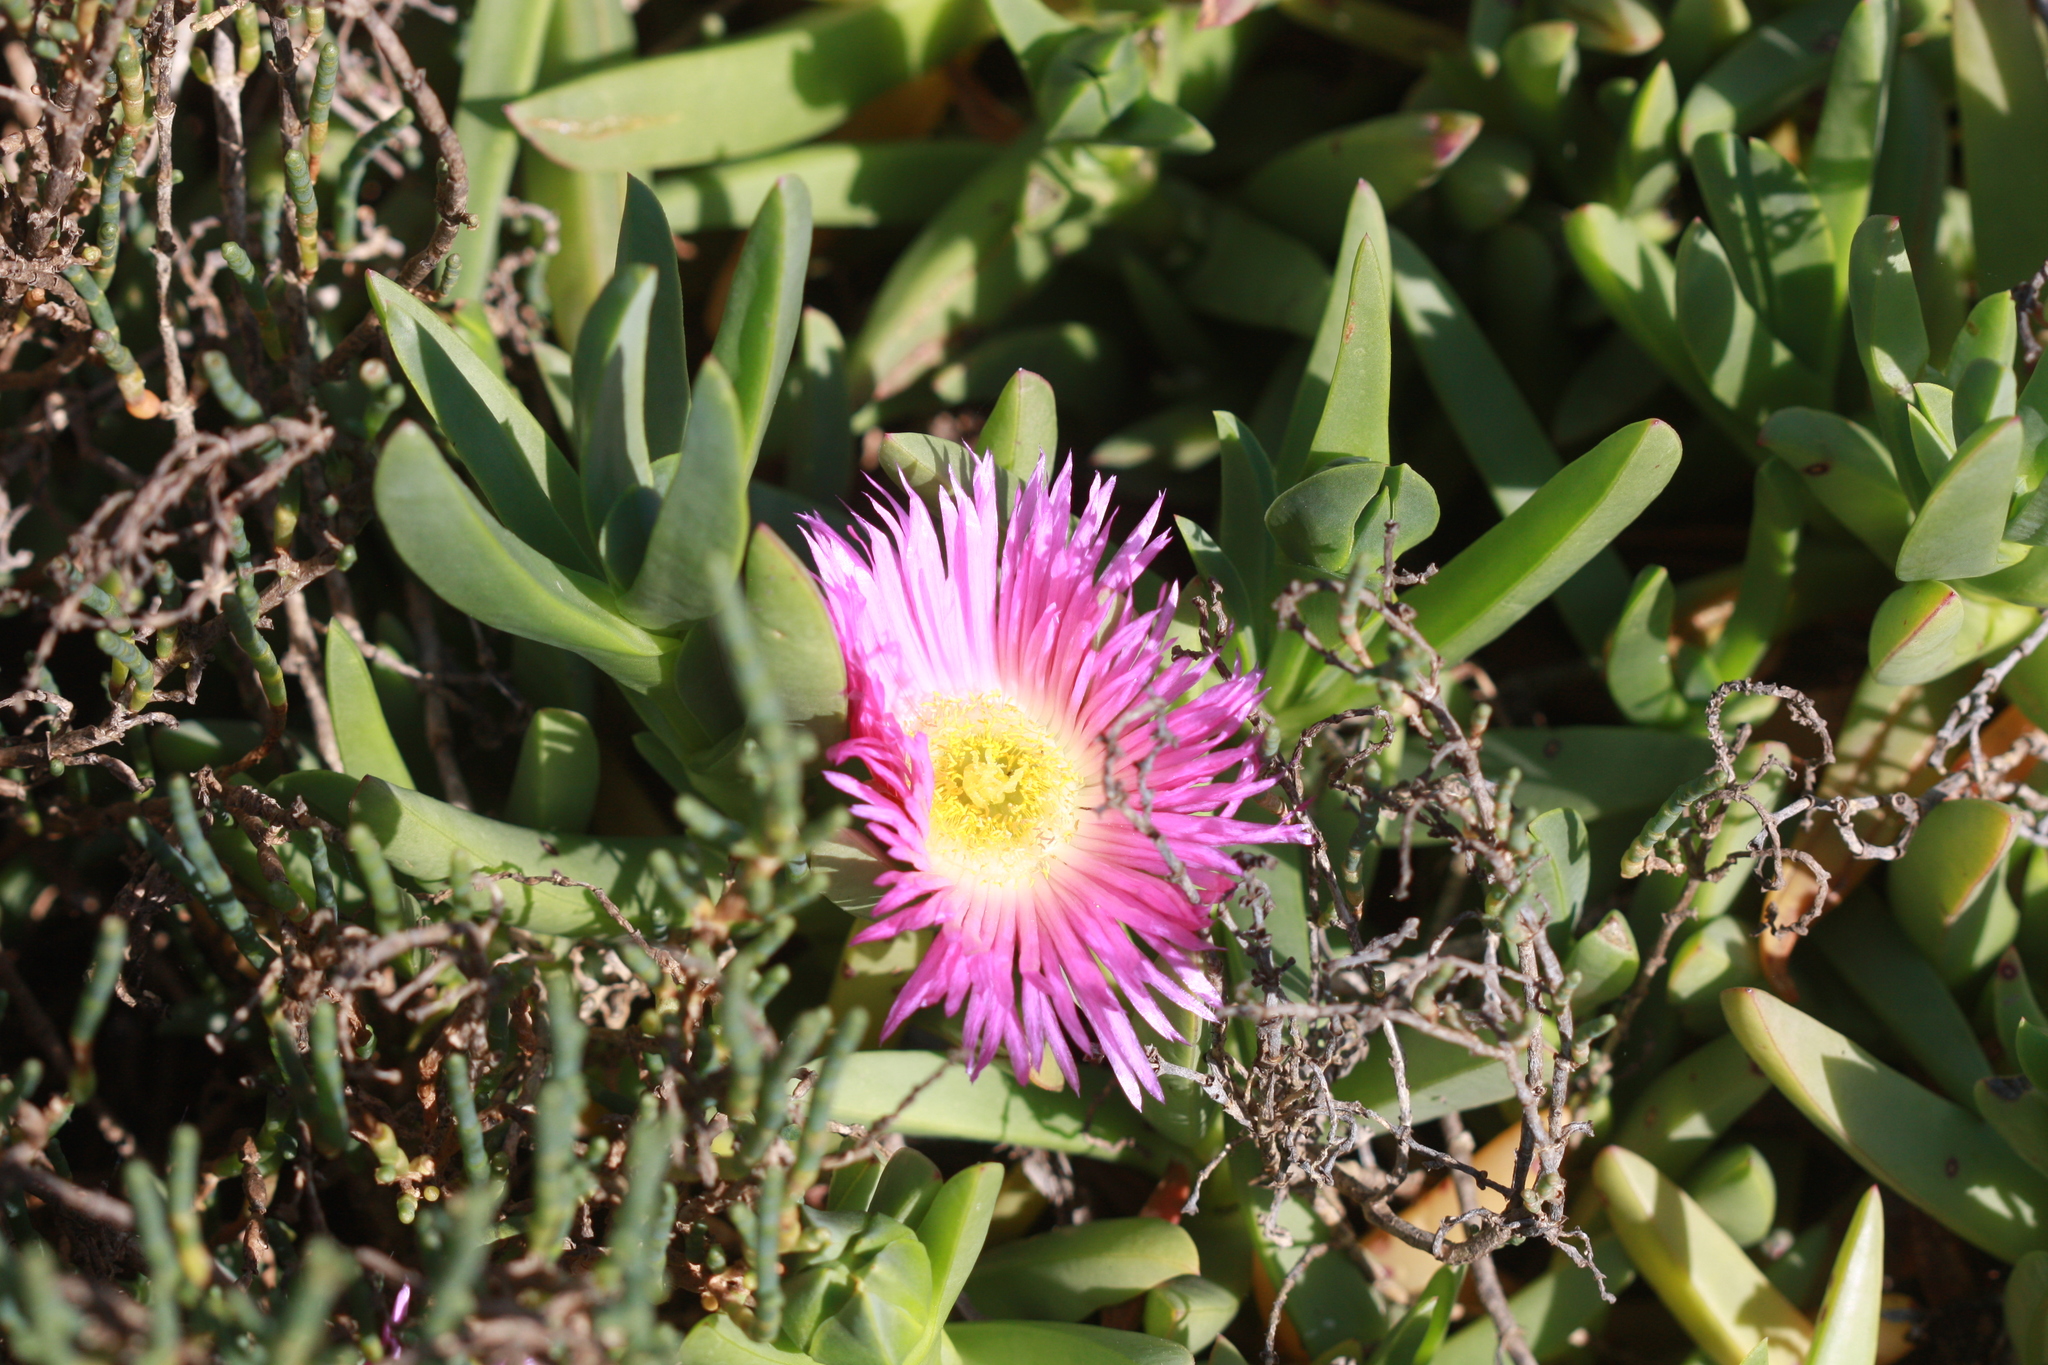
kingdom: Plantae
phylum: Tracheophyta
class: Magnoliopsida
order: Caryophyllales
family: Aizoaceae
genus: Carpobrotus
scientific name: Carpobrotus edulis
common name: Hottentot-fig
